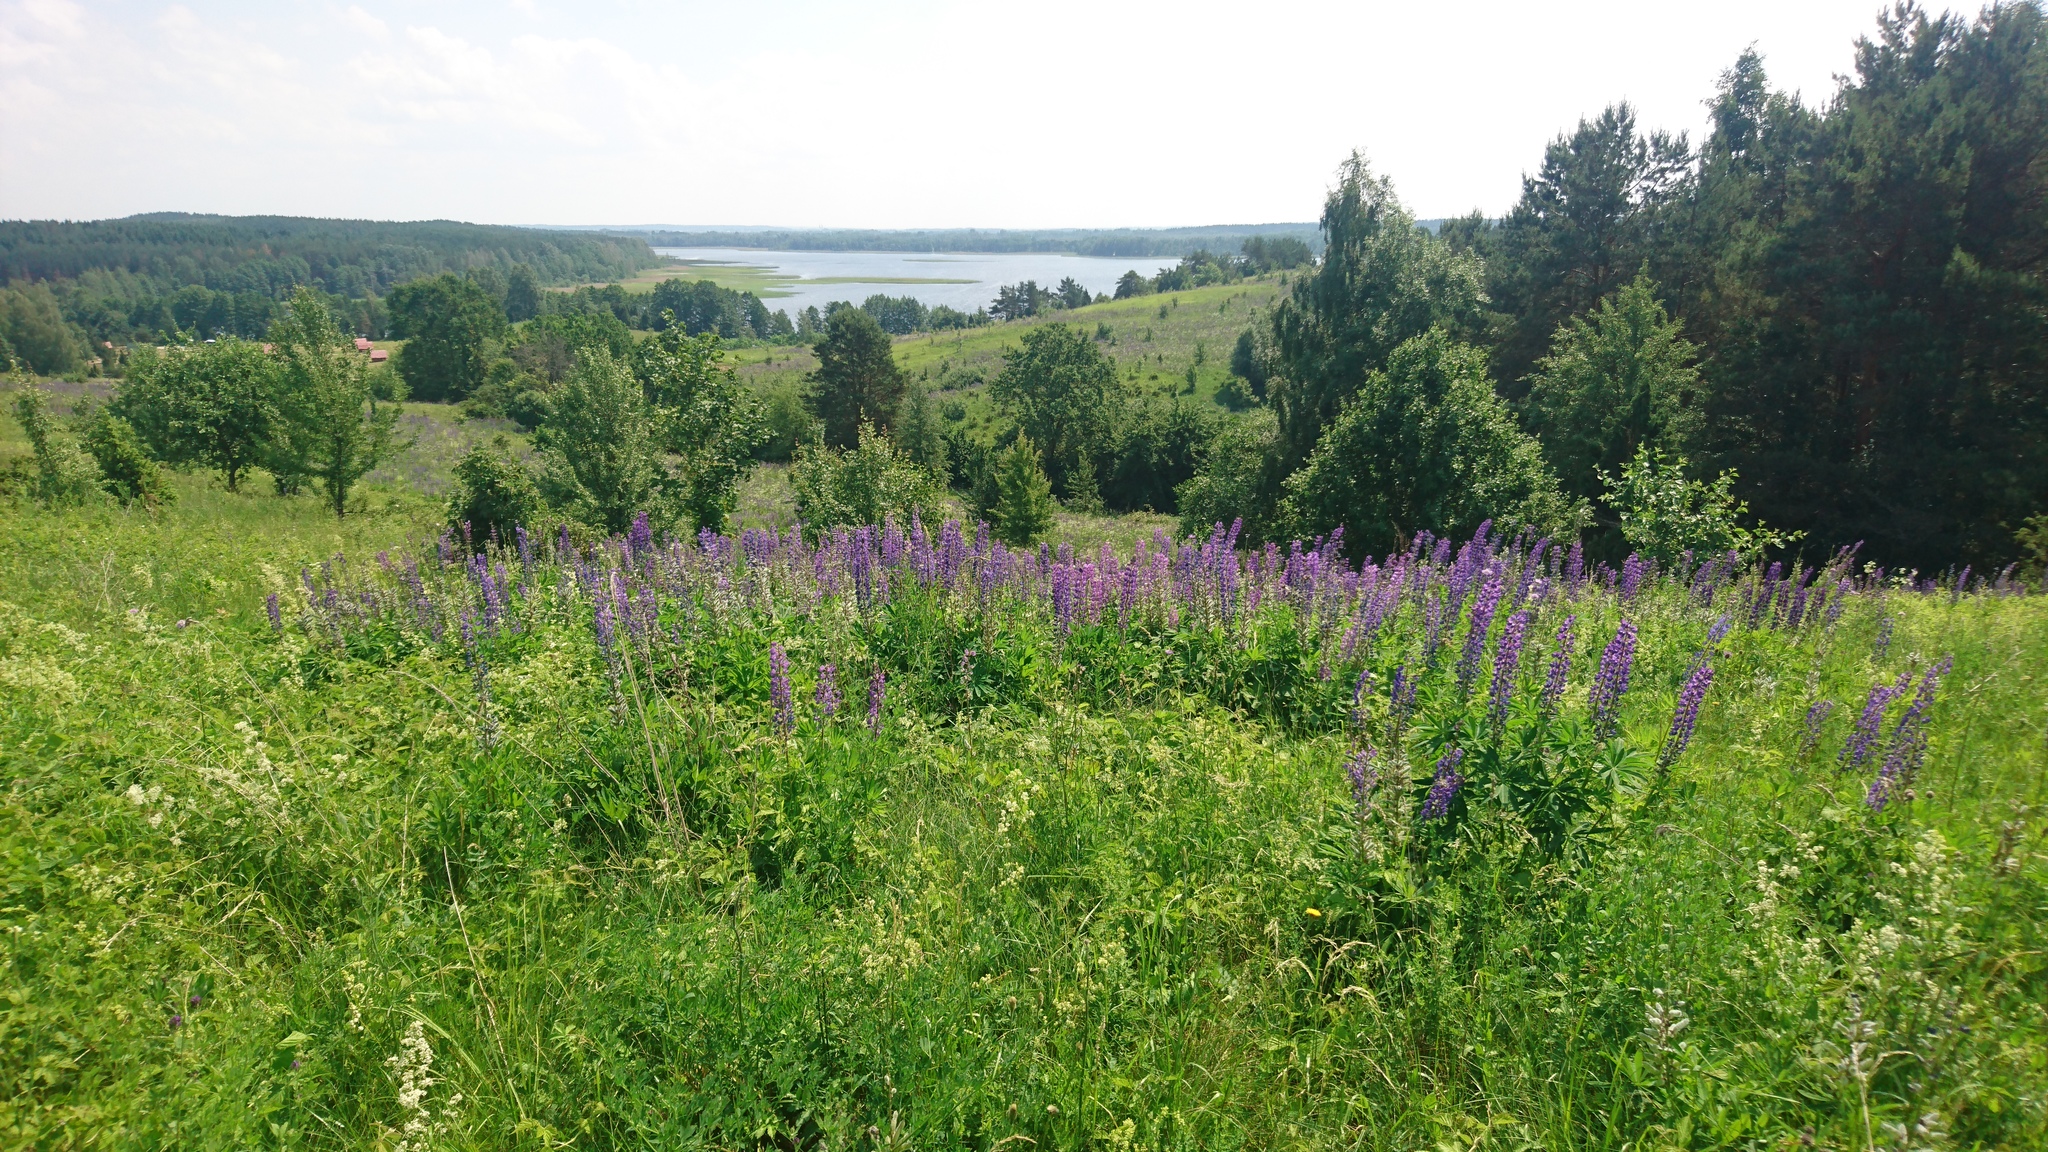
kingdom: Plantae
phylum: Tracheophyta
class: Magnoliopsida
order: Fabales
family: Fabaceae
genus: Lupinus
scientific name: Lupinus polyphyllus
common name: Garden lupin
